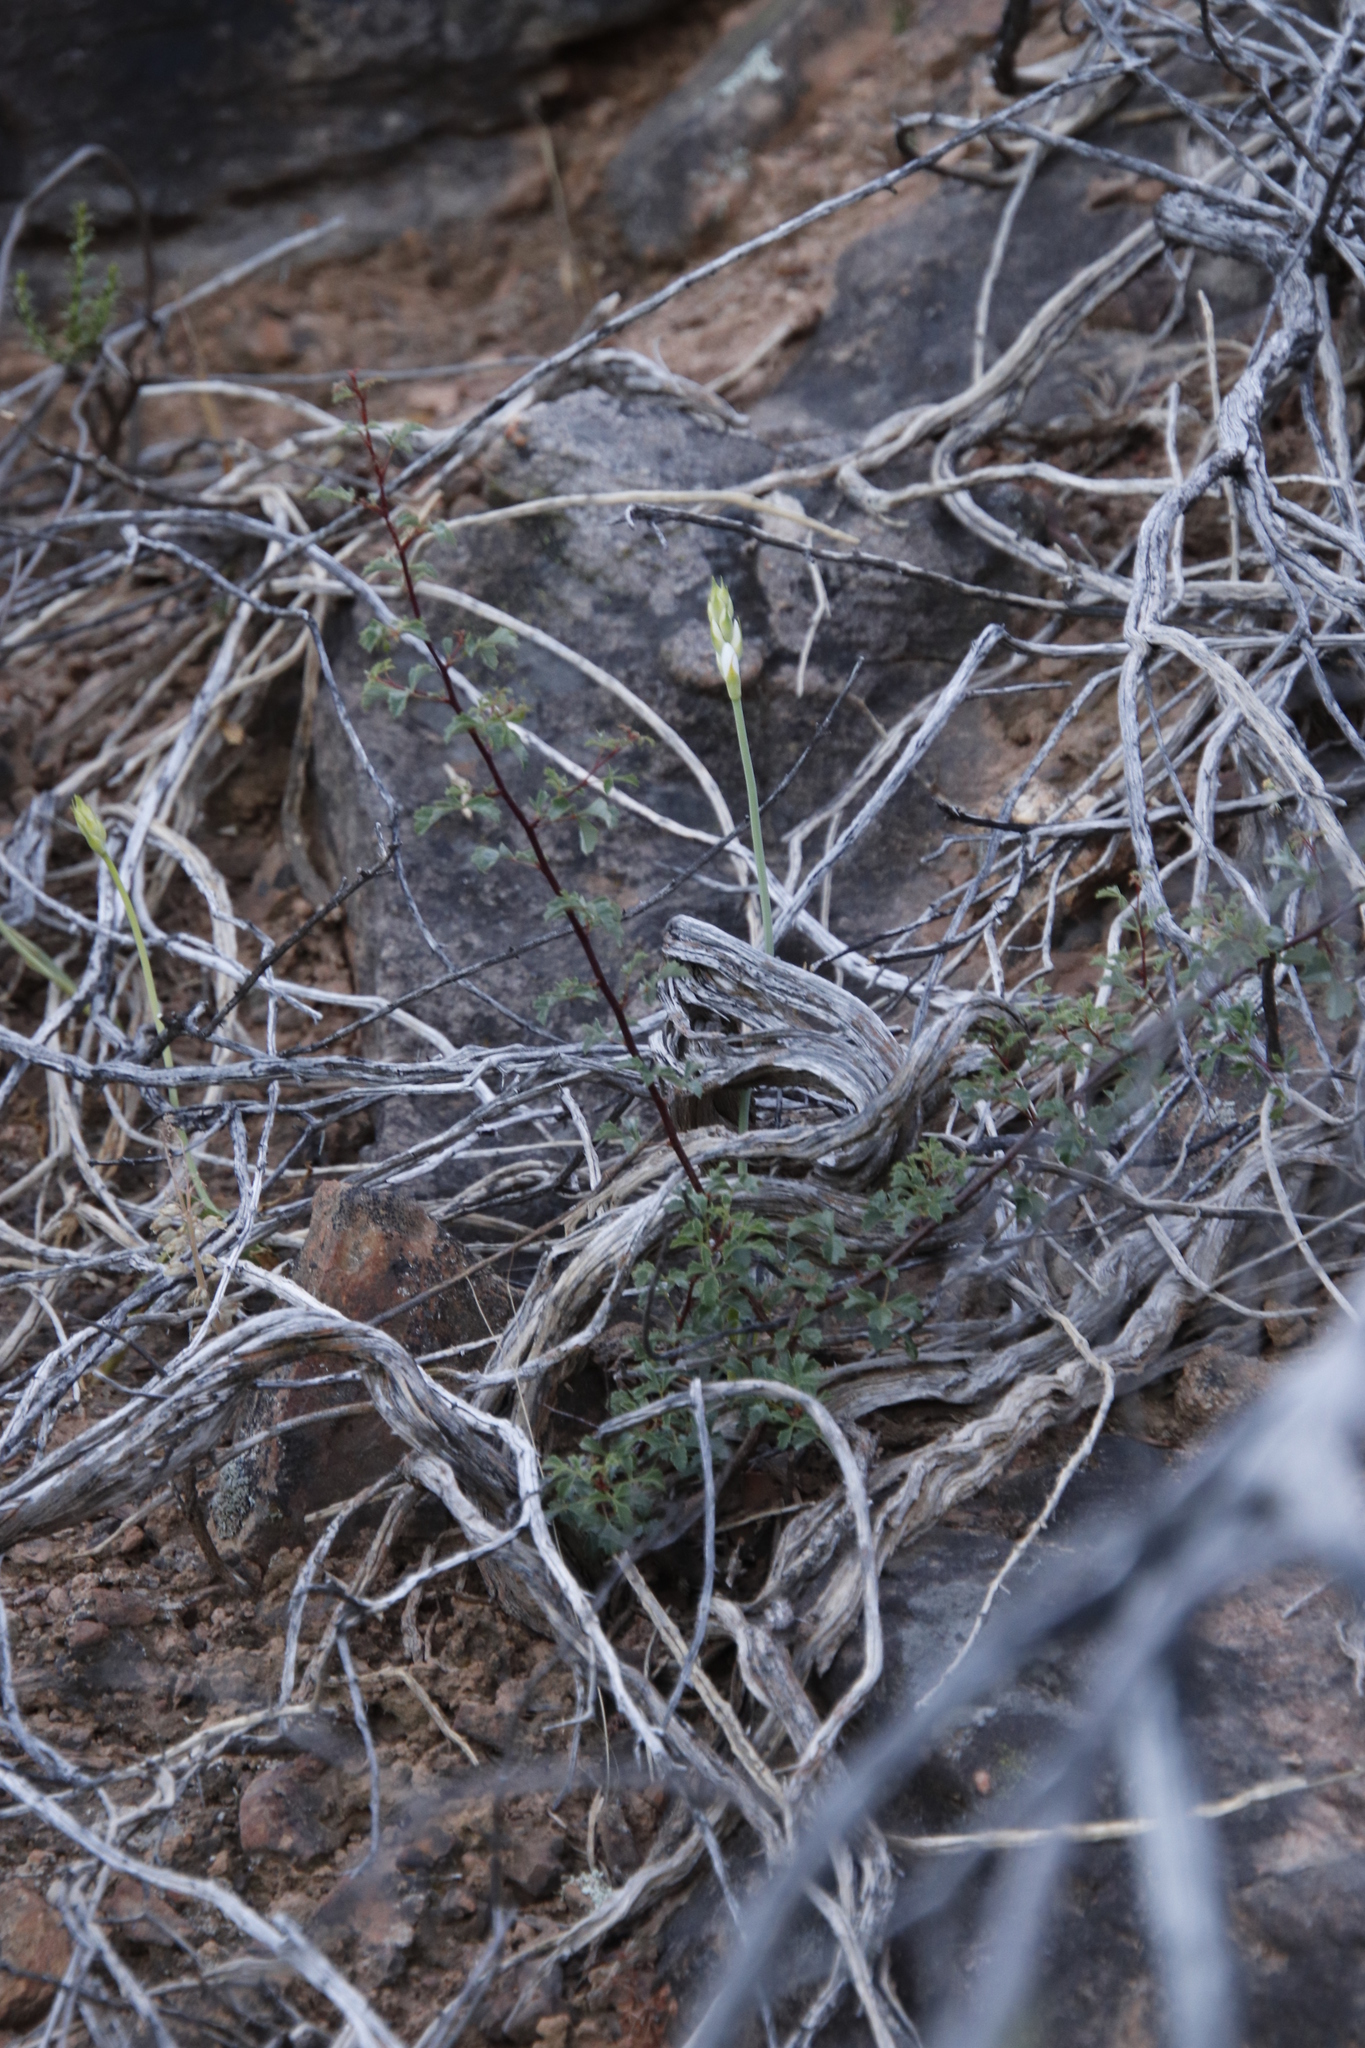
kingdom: Plantae
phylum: Tracheophyta
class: Magnoliopsida
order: Sapindales
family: Anacardiaceae
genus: Searsia
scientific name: Searsia dissecta
